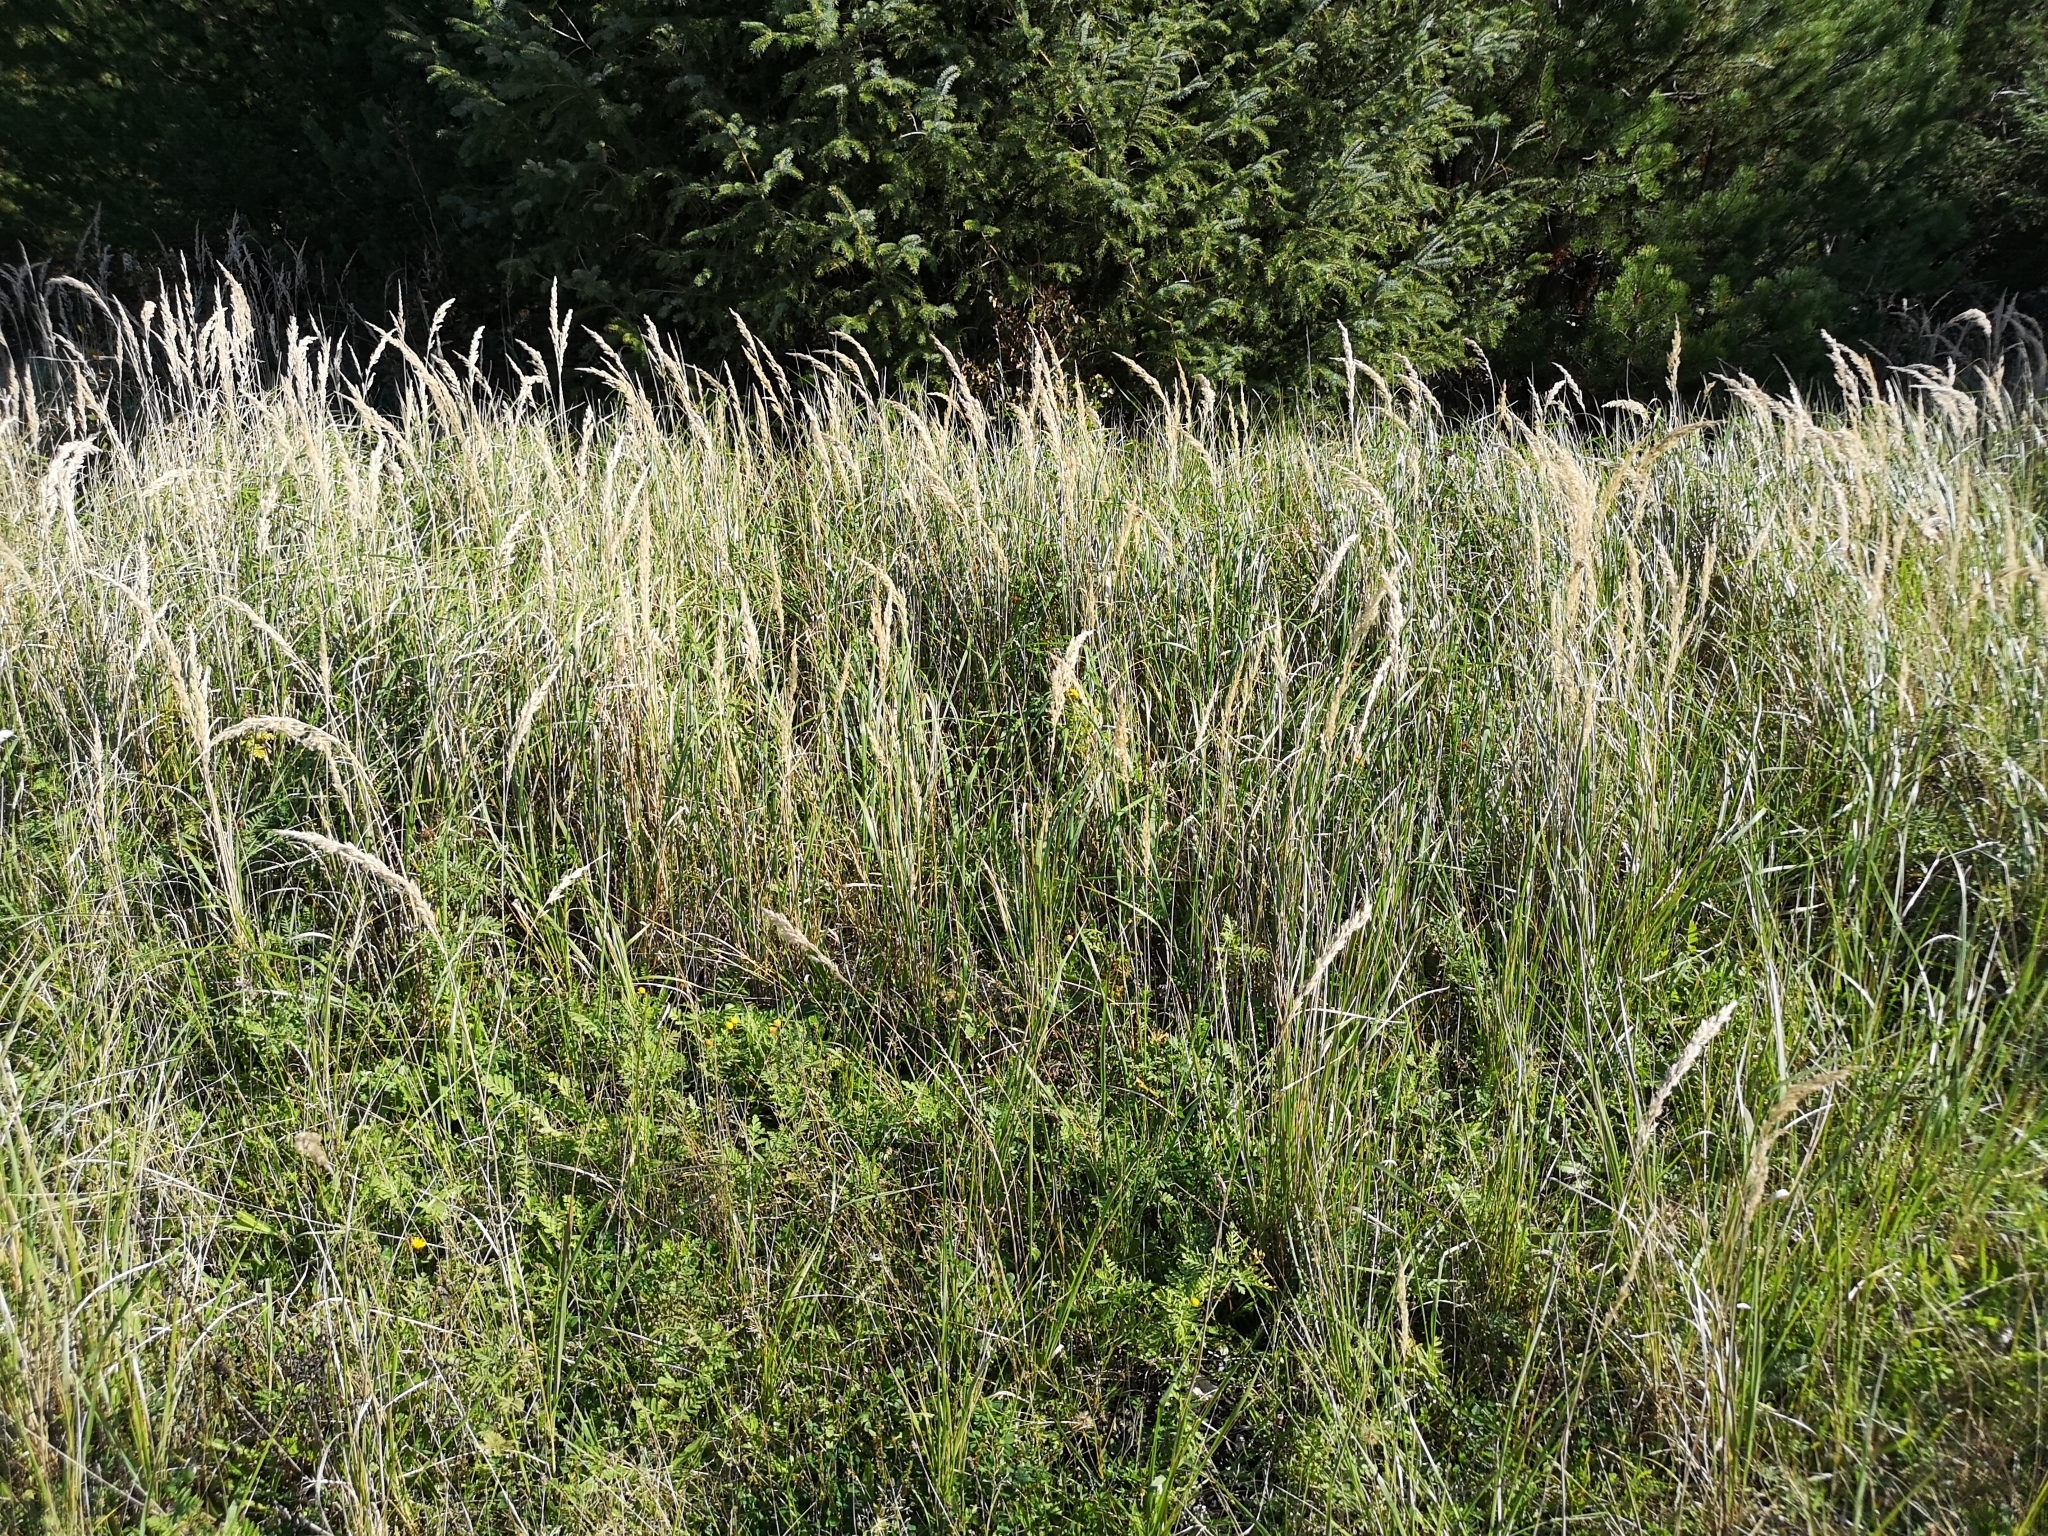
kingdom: Plantae
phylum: Tracheophyta
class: Liliopsida
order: Poales
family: Poaceae
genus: Calamagrostis
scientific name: Calamagrostis epigejos
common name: Wood small-reed
